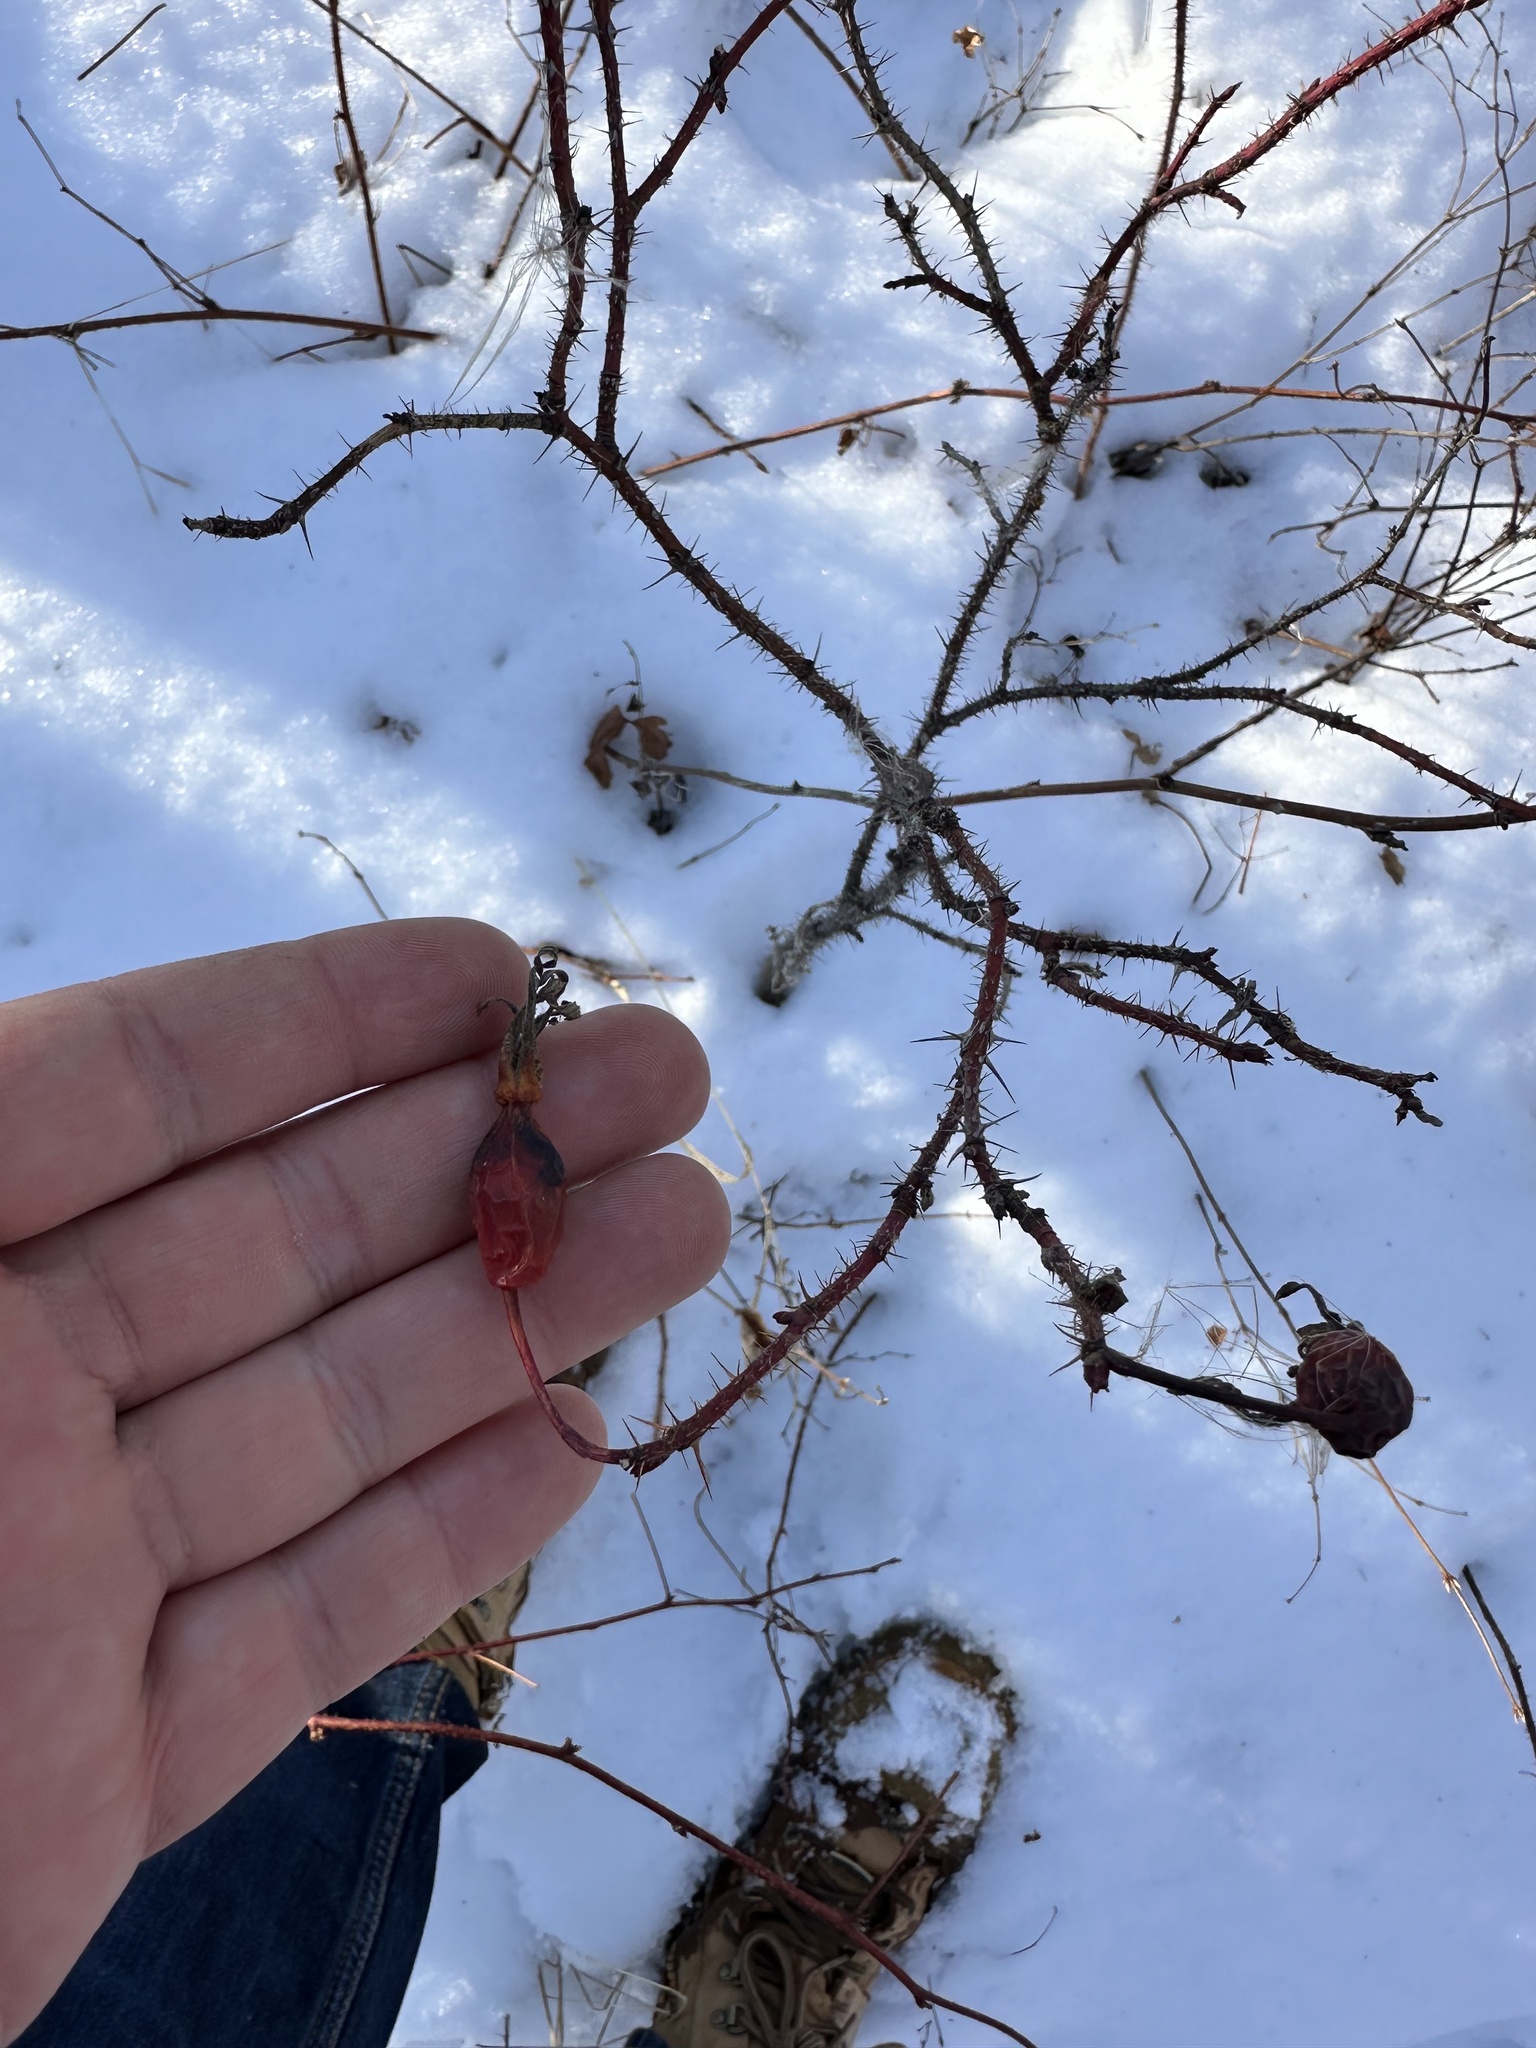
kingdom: Plantae
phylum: Tracheophyta
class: Magnoliopsida
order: Rosales
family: Rosaceae
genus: Rosa
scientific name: Rosa acicularis
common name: Prickly rose
